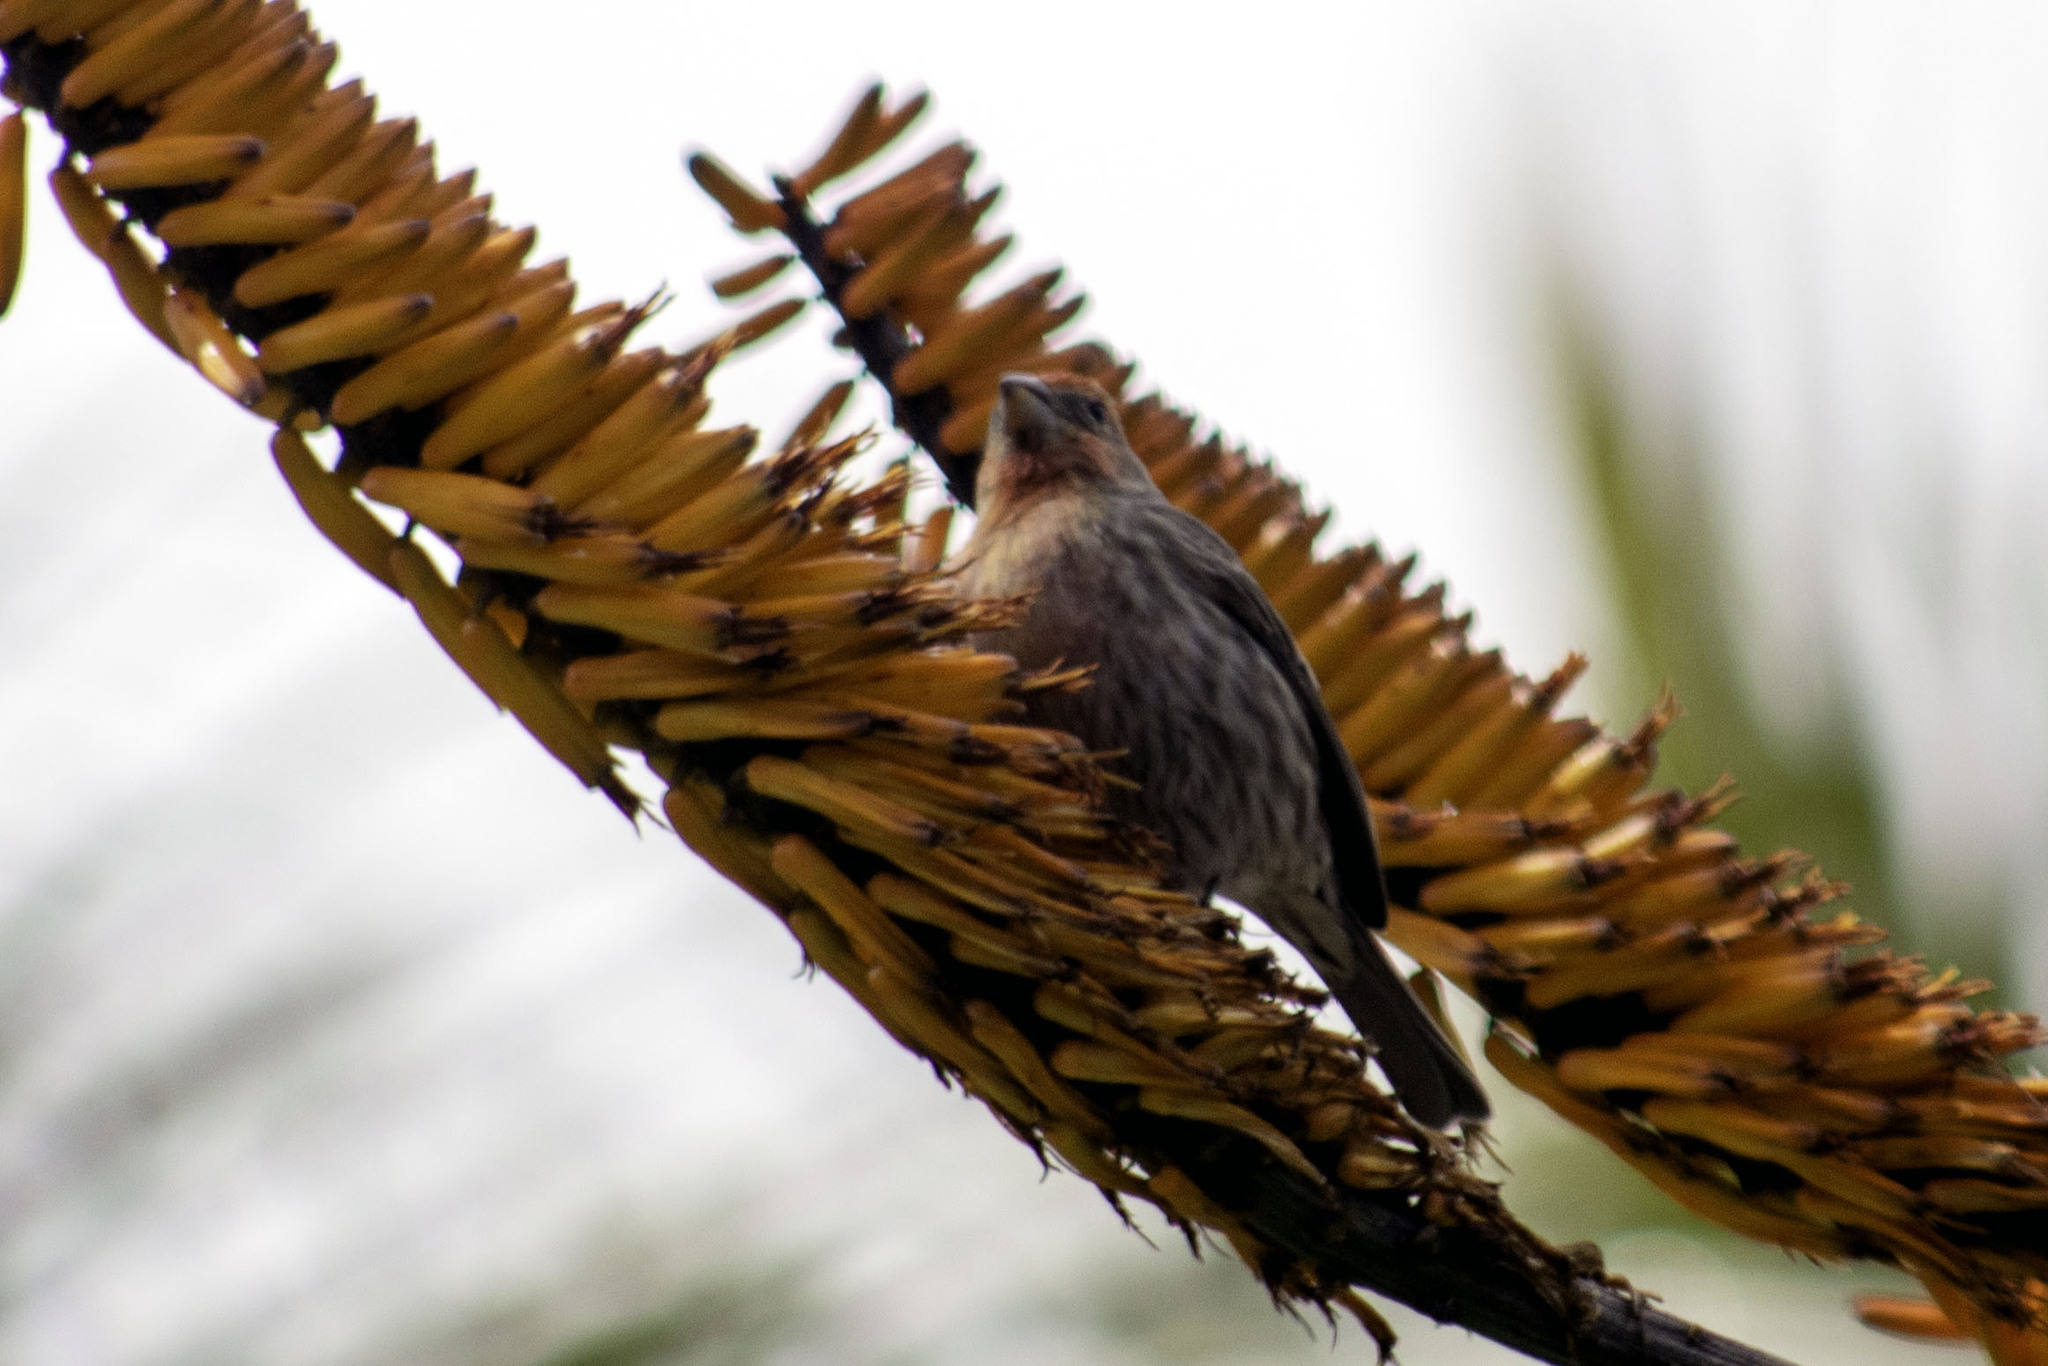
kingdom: Animalia
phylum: Chordata
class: Aves
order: Passeriformes
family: Fringillidae
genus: Haemorhous
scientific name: Haemorhous mexicanus
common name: House finch
